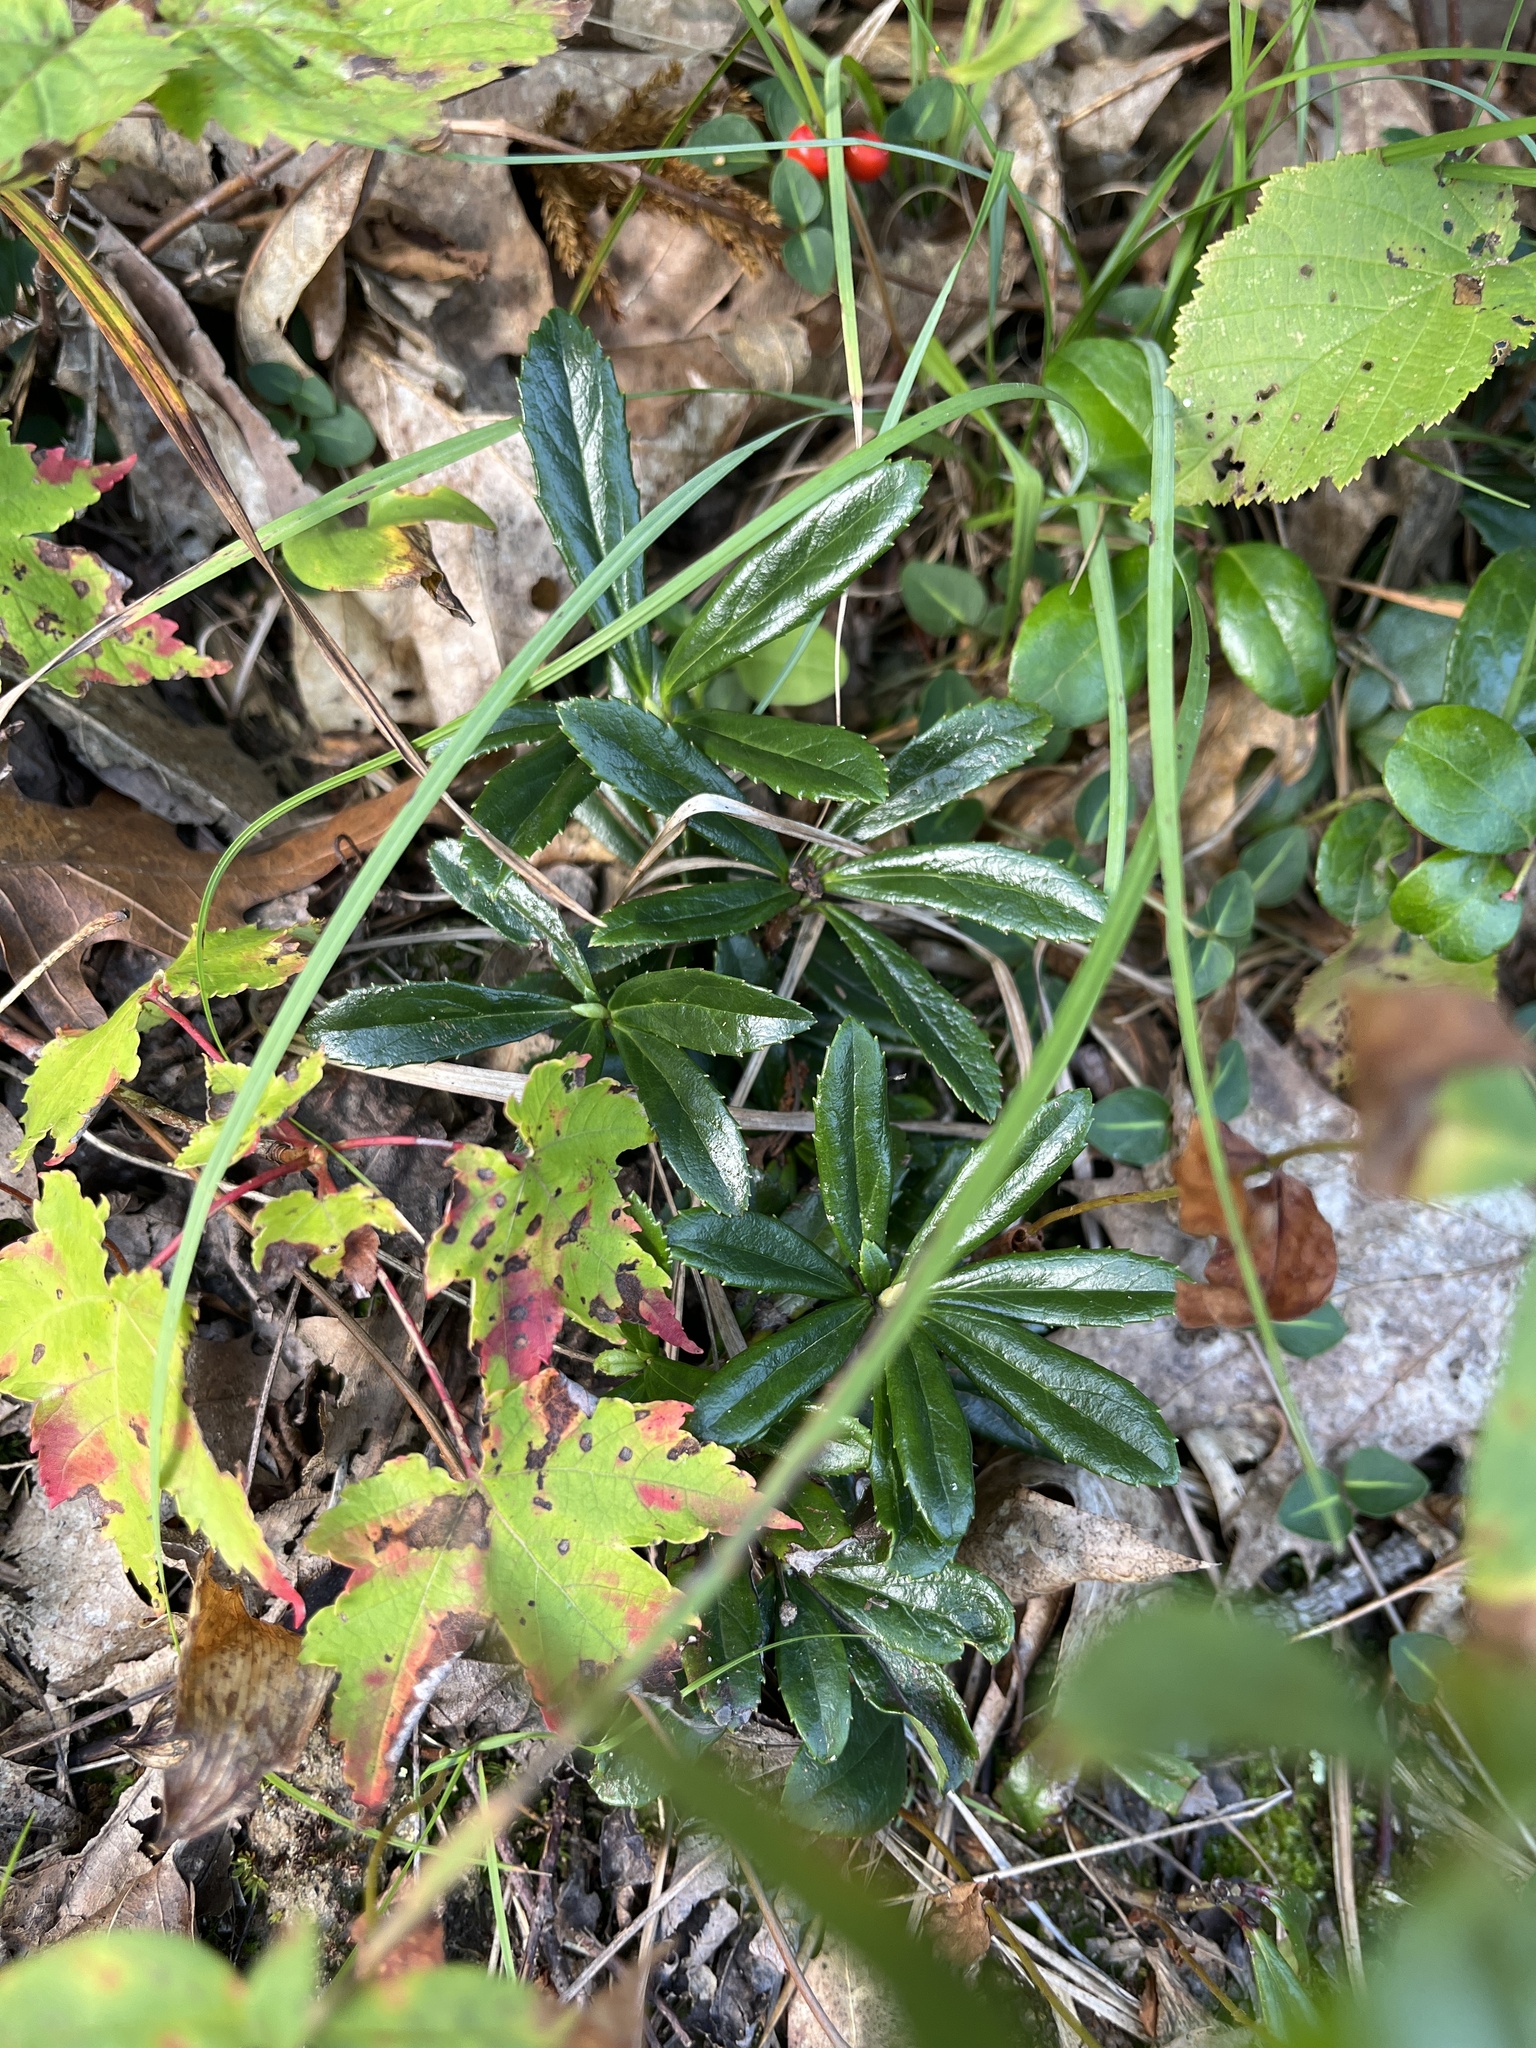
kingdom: Plantae
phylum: Tracheophyta
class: Magnoliopsida
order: Ericales
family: Ericaceae
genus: Chimaphila
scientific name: Chimaphila umbellata
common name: Pipsissewa
